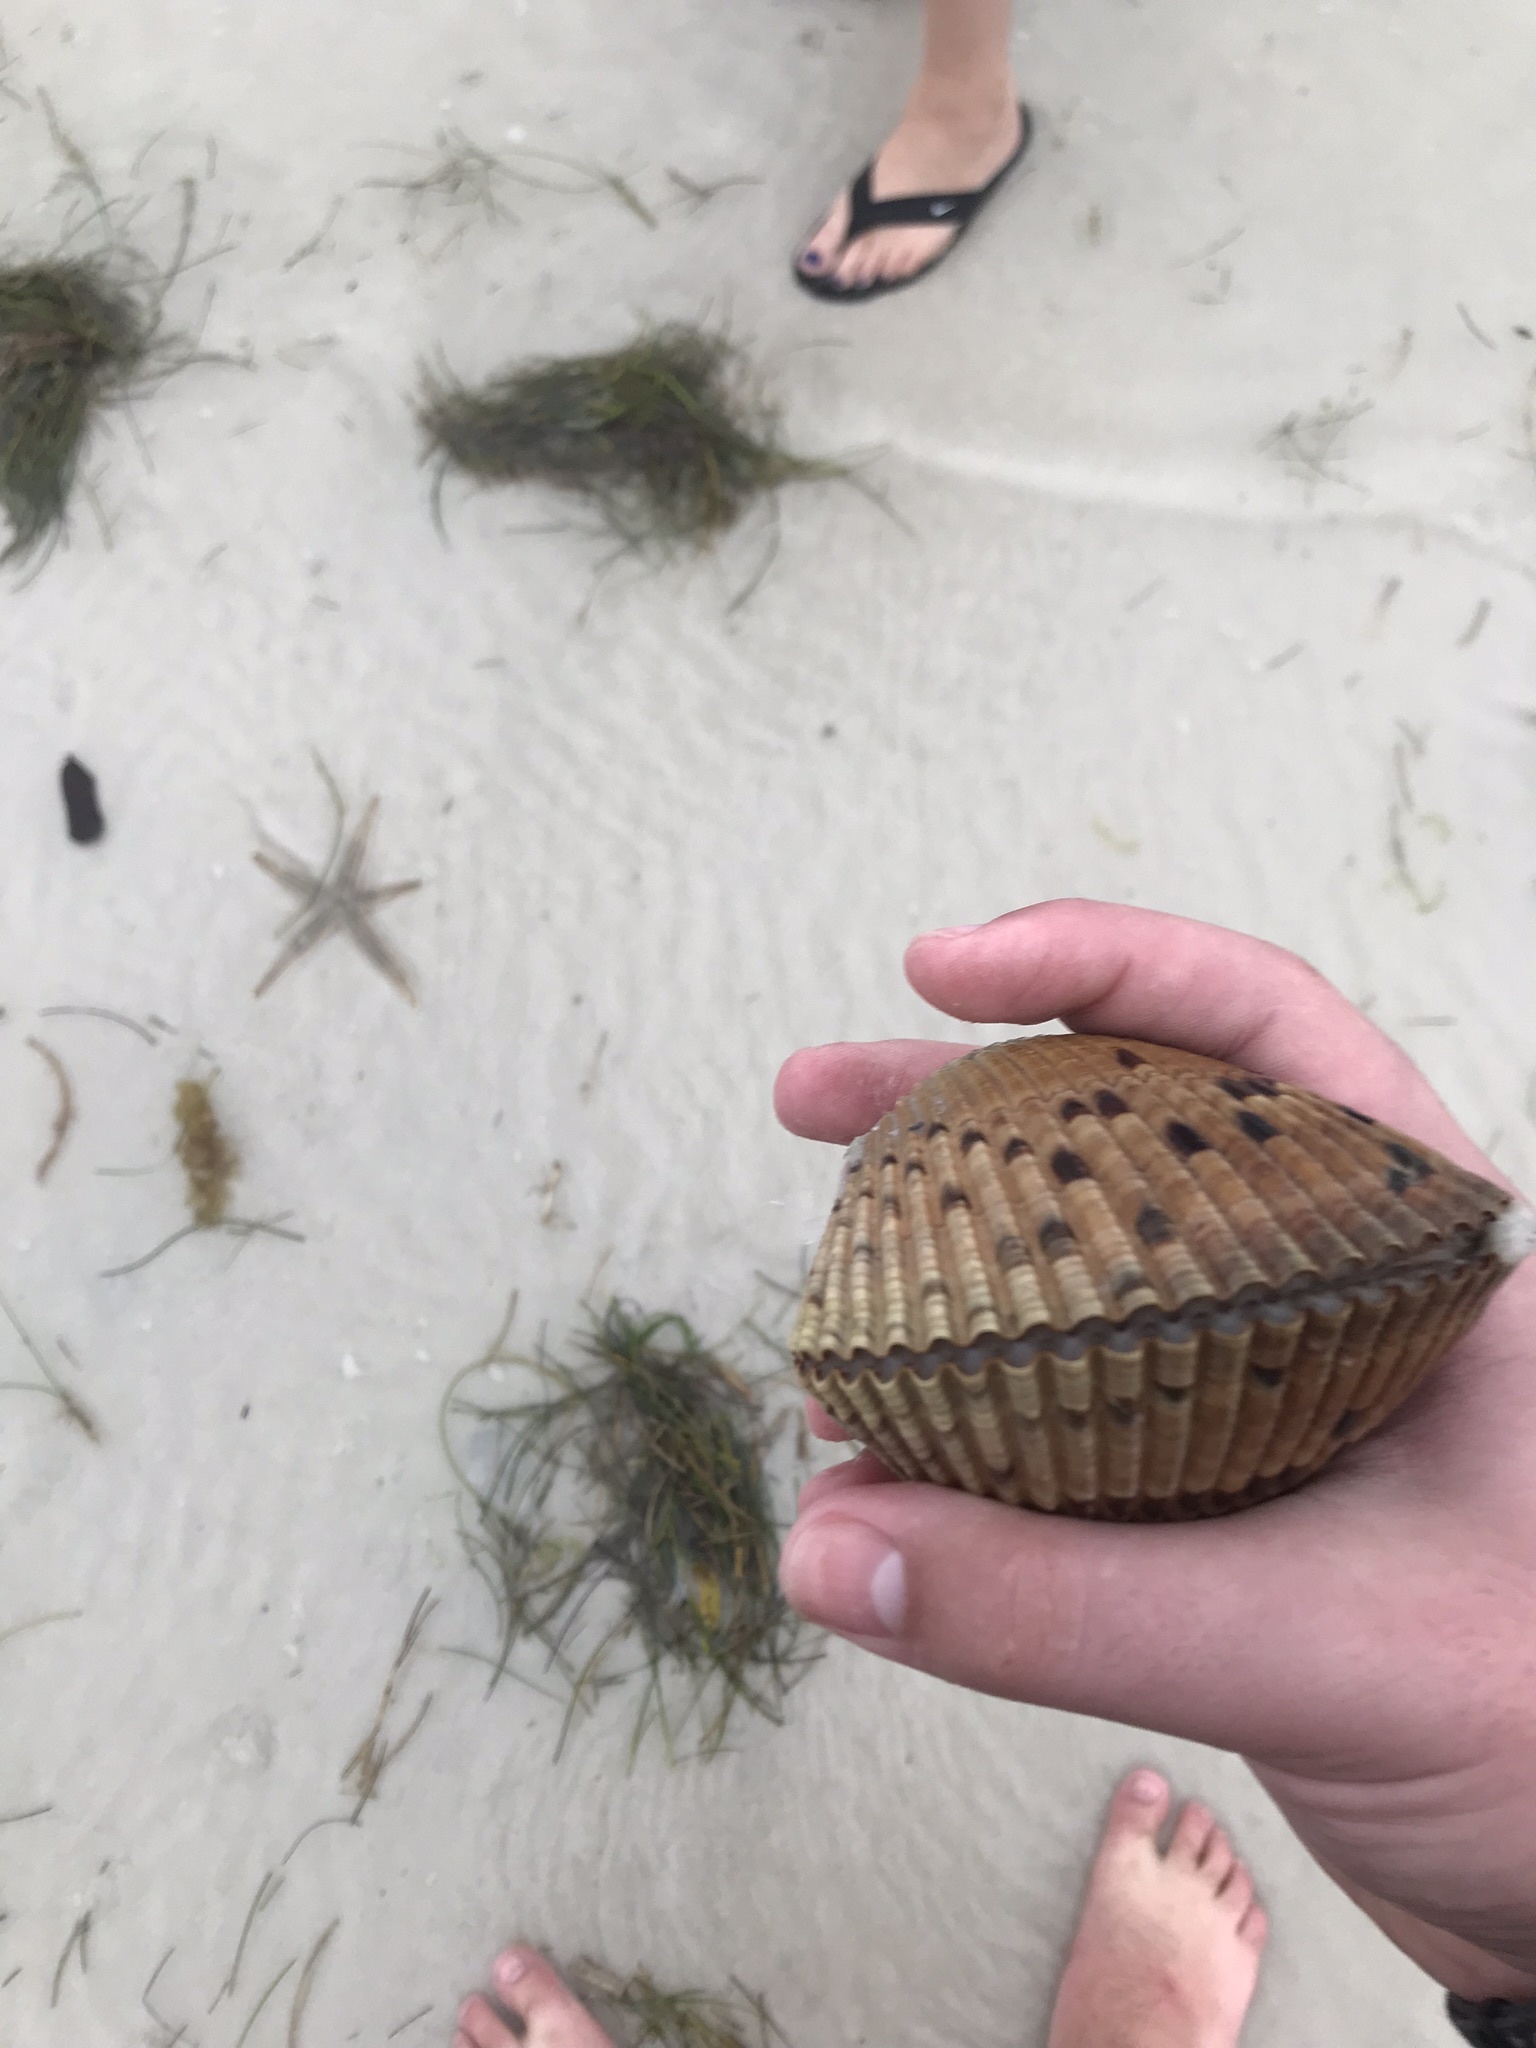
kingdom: Animalia
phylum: Mollusca
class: Bivalvia
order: Cardiida
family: Cardiidae
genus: Dinocardium
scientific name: Dinocardium robustum
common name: Atlantic giant cockle
